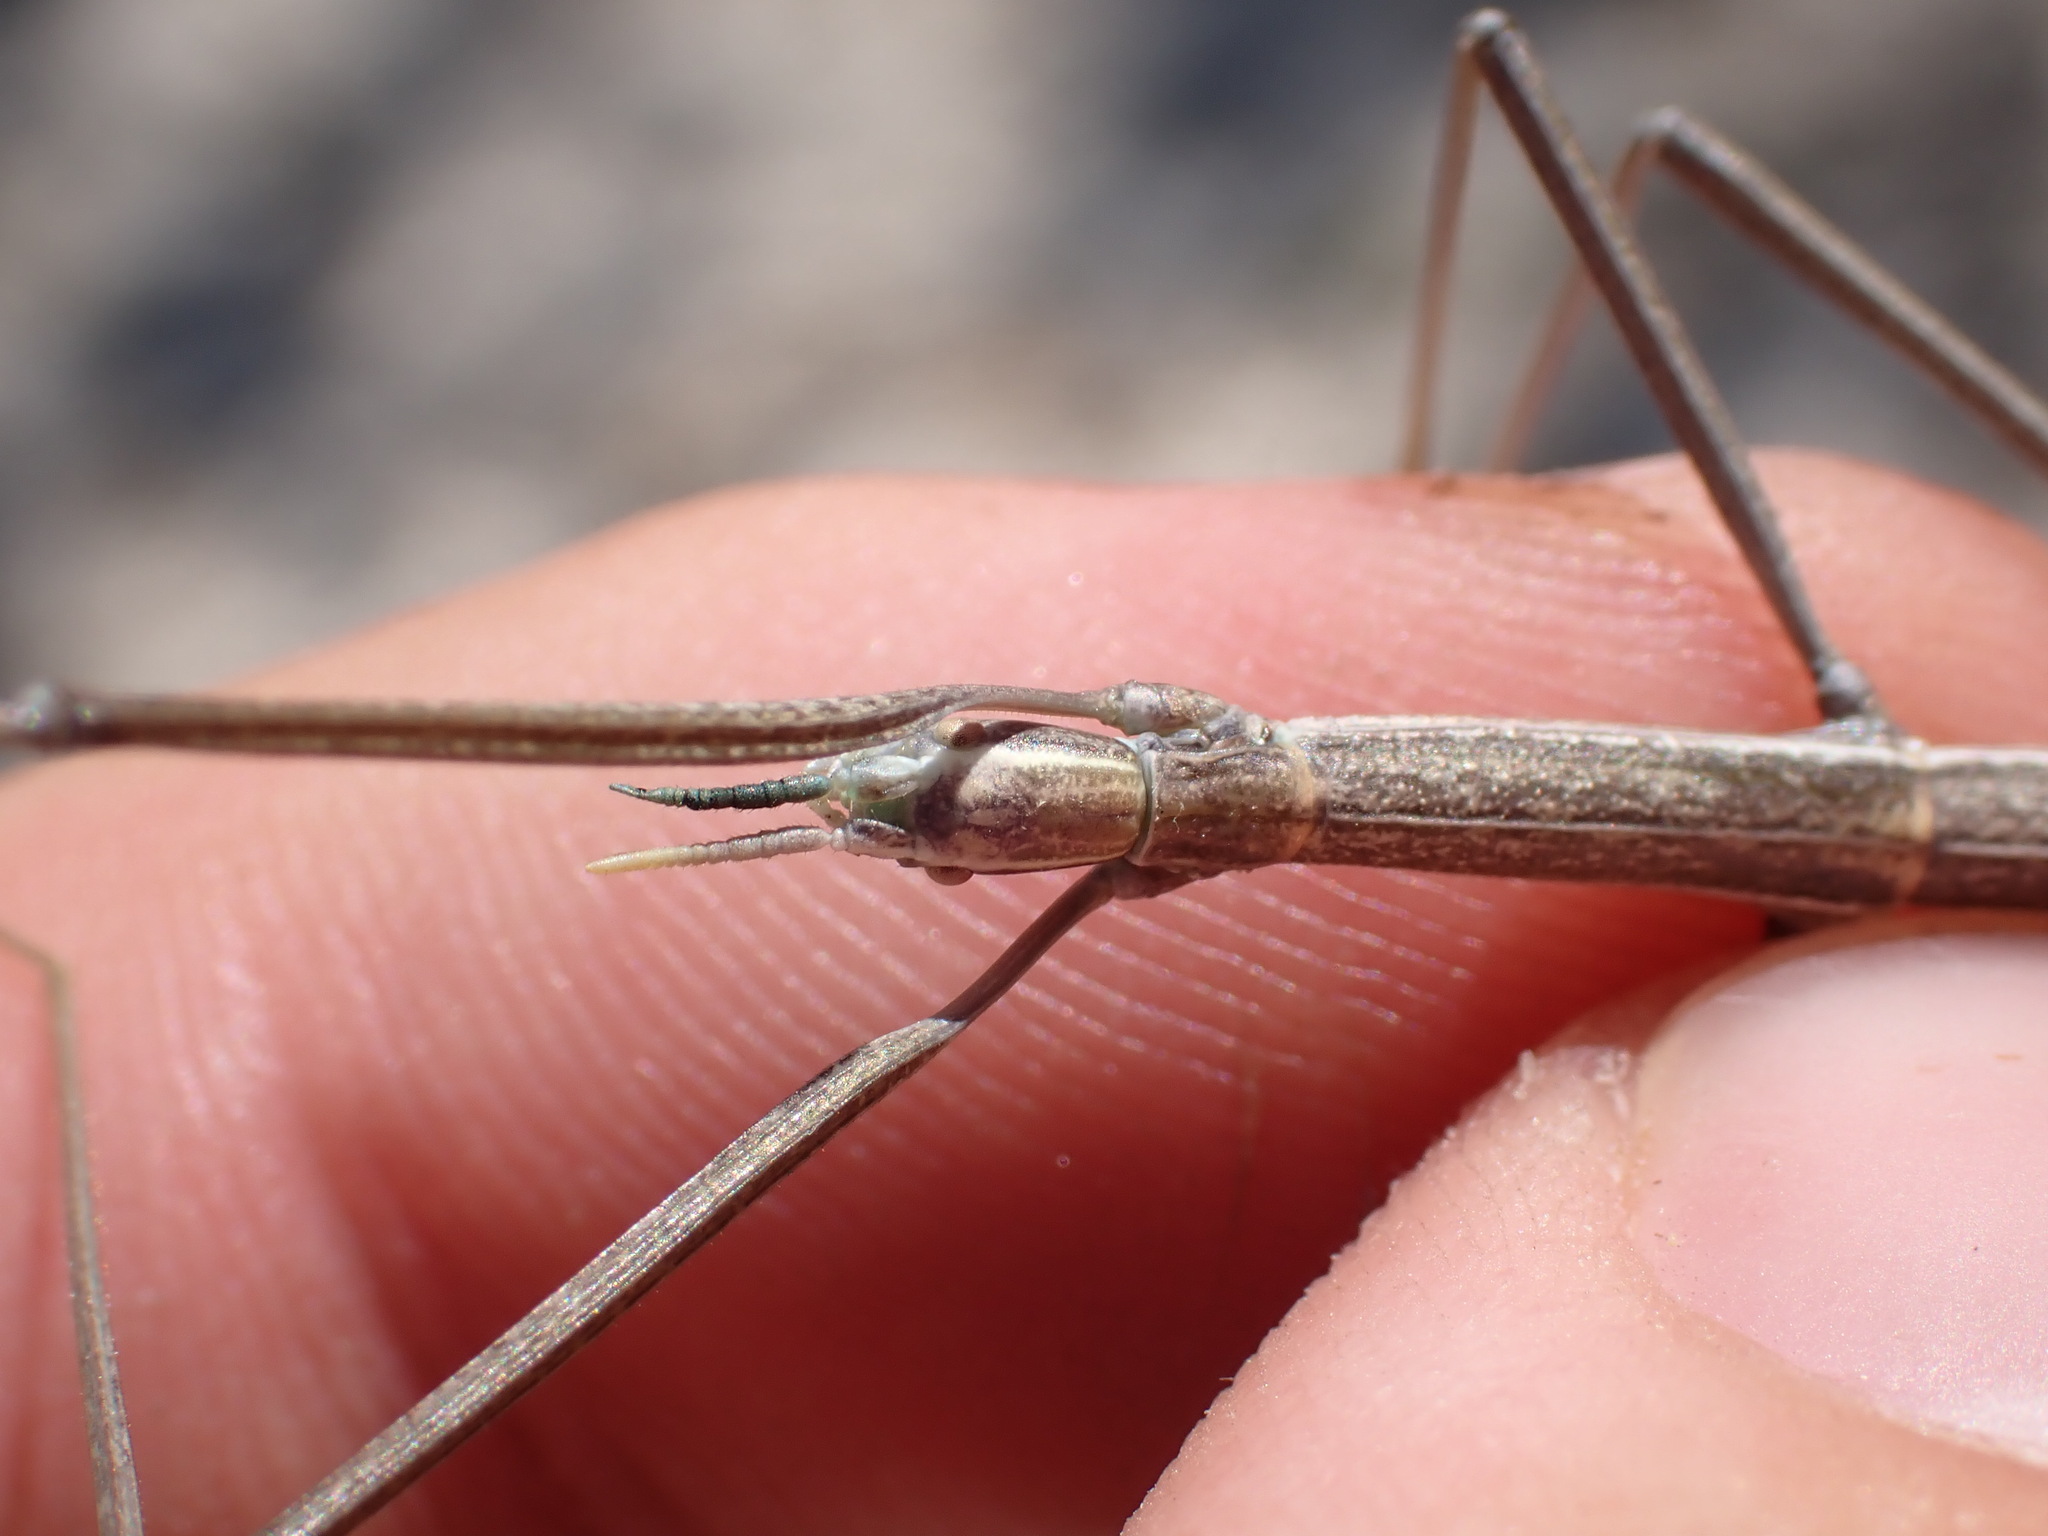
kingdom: Animalia
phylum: Arthropoda
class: Insecta
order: Phasmida
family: Bacillidae
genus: Clonopsis
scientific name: Clonopsis gallica
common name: French stick insect
